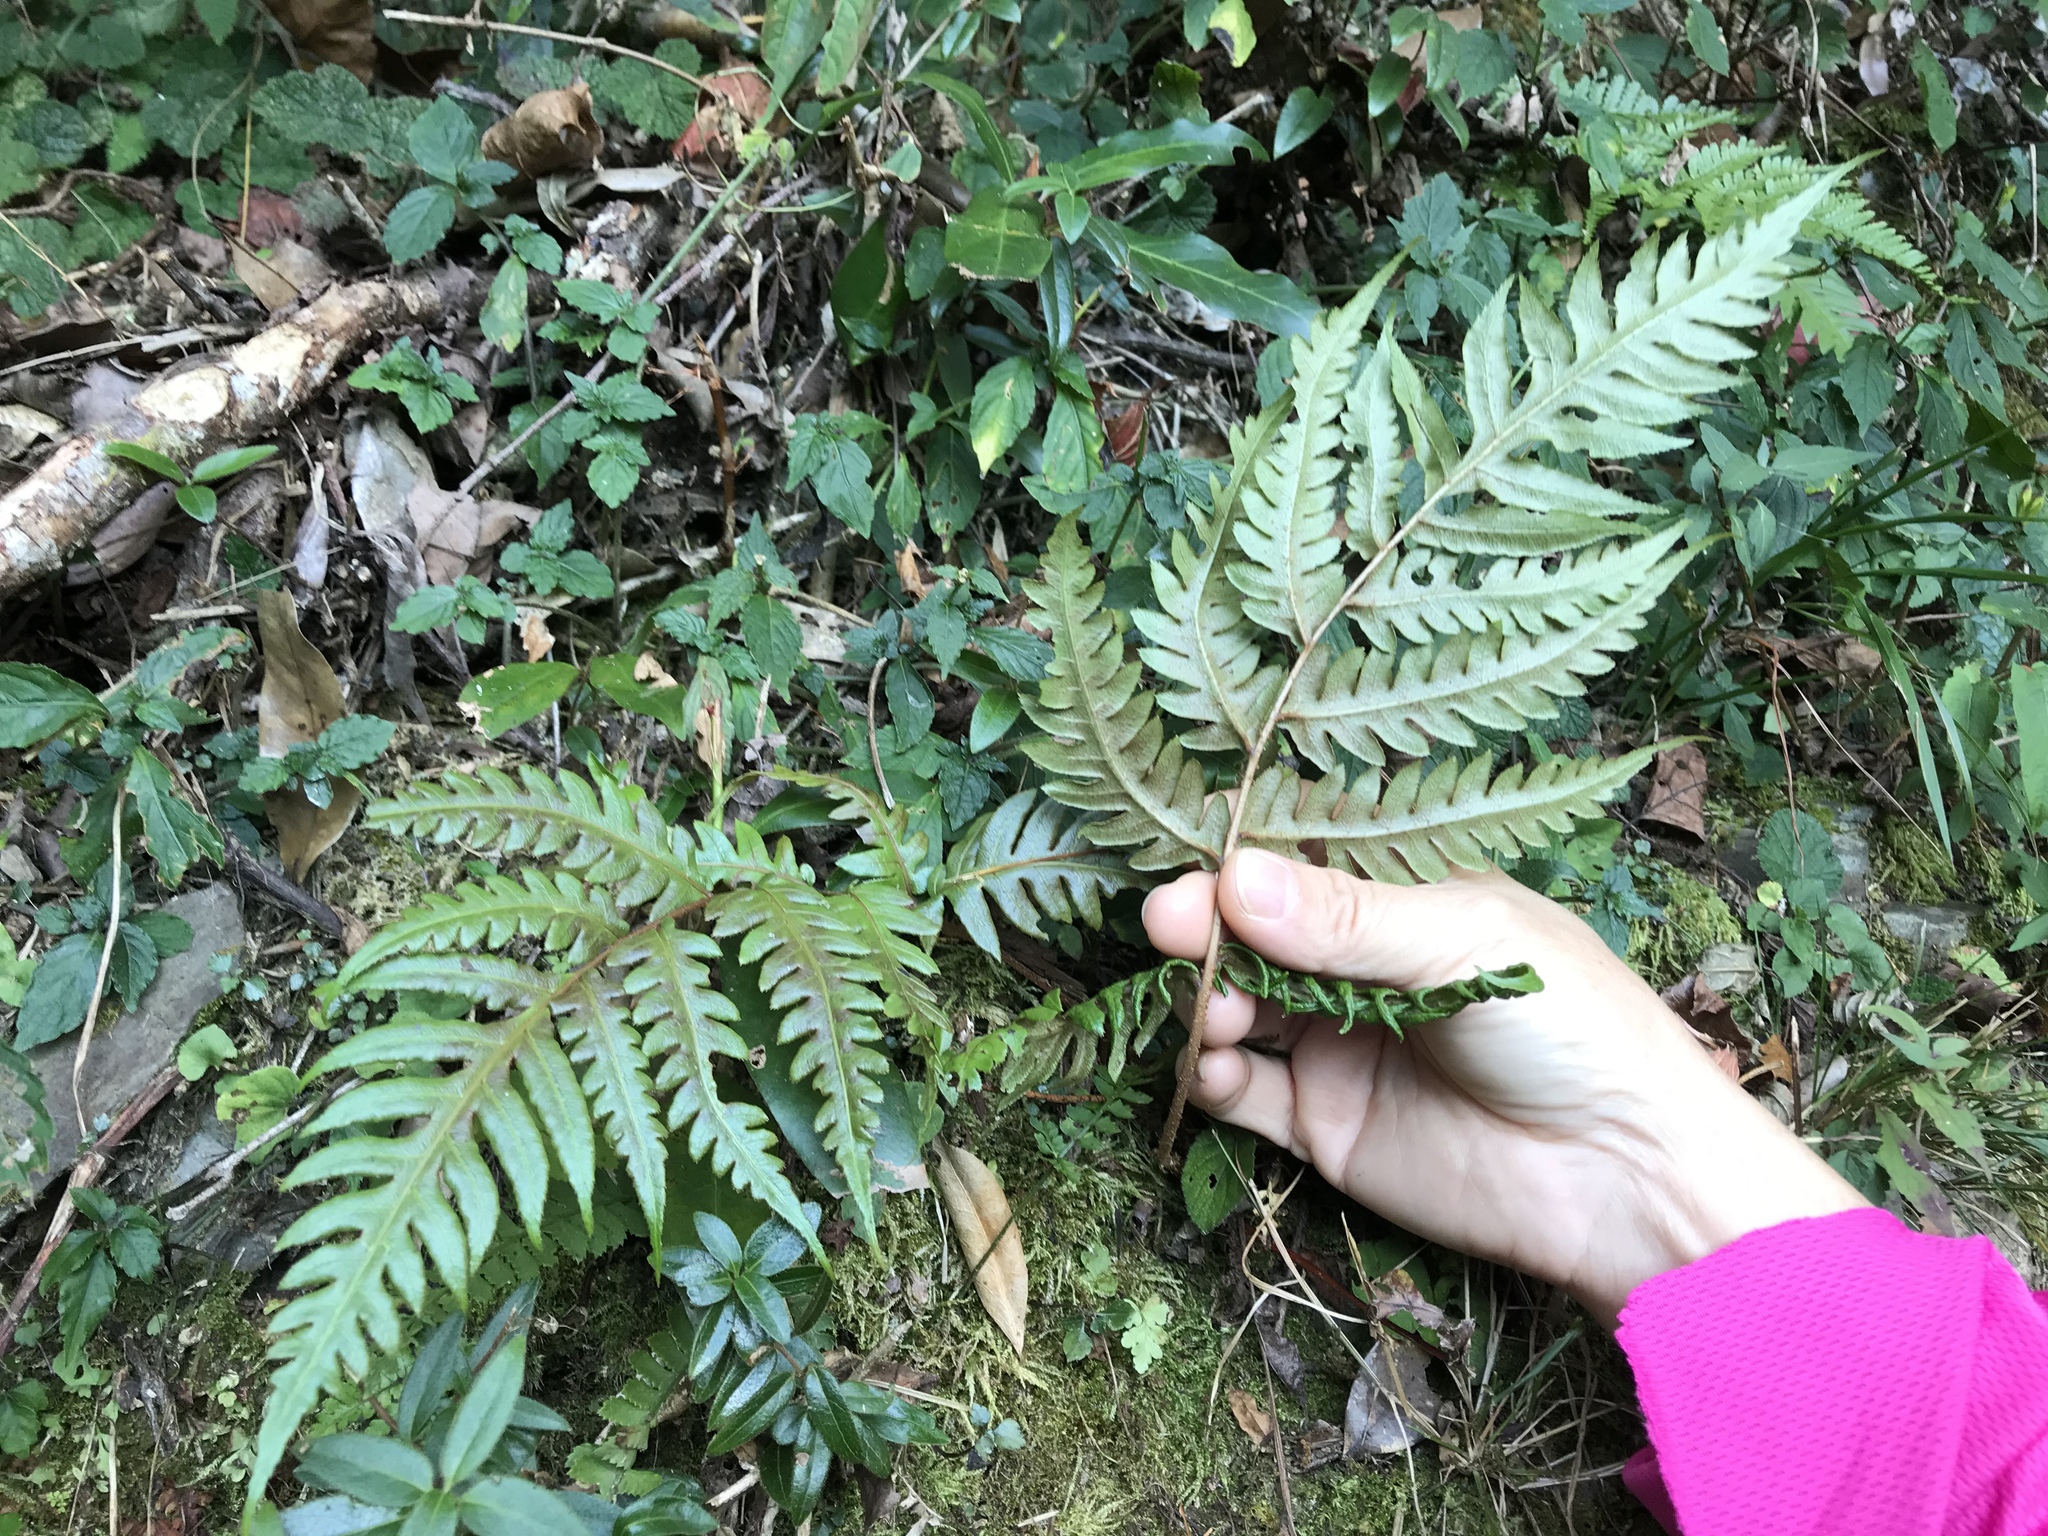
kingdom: Plantae
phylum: Tracheophyta
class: Polypodiopsida
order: Polypodiales
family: Blechnaceae
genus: Woodwardia
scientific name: Woodwardia unigemmata
